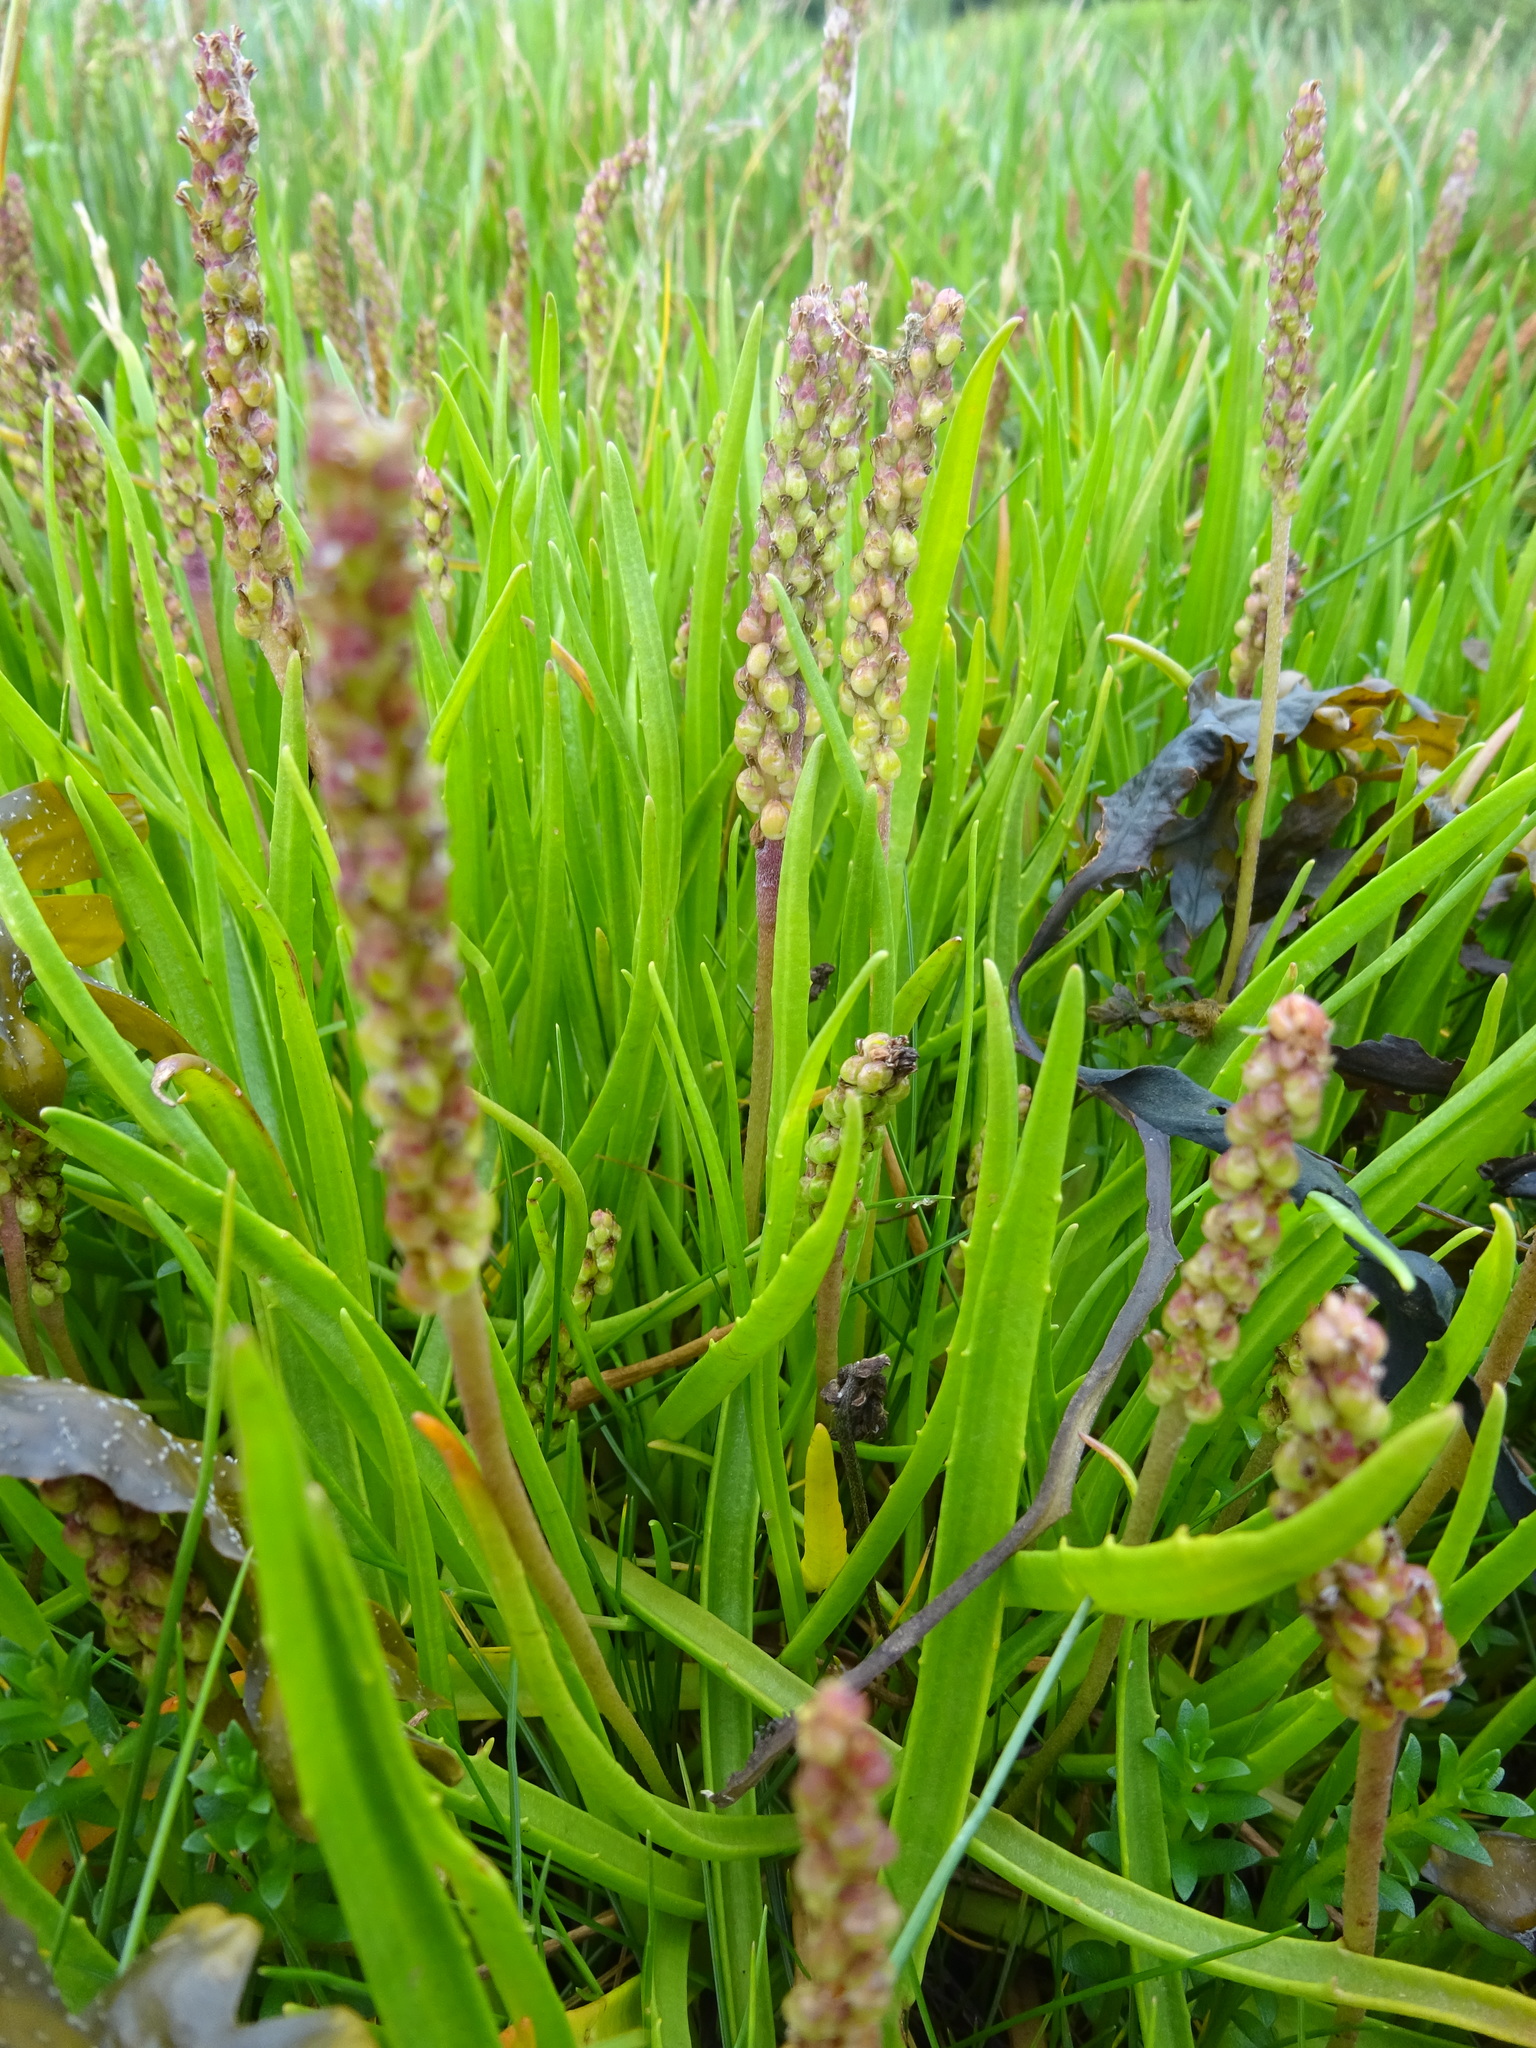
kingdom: Plantae
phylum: Tracheophyta
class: Magnoliopsida
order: Lamiales
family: Plantaginaceae
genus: Plantago
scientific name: Plantago maritima
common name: Sea plantain
